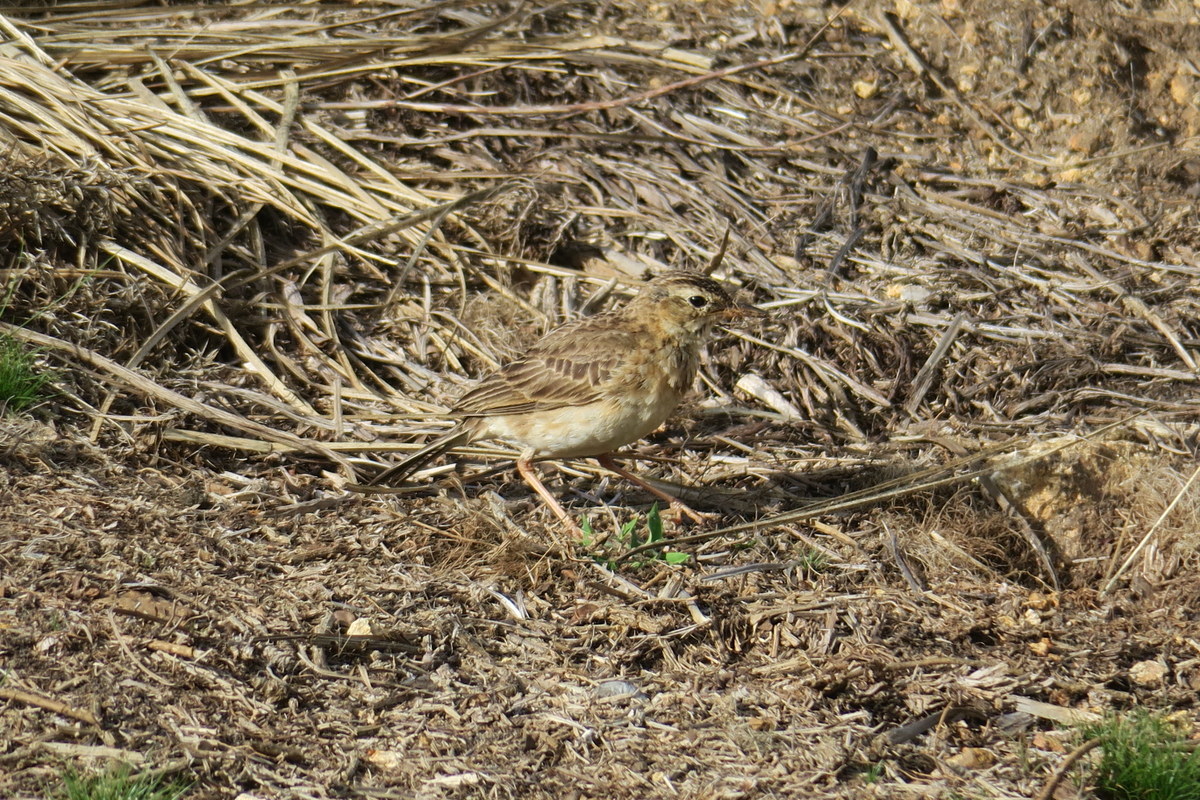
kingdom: Animalia
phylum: Chordata
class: Aves
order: Passeriformes
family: Motacillidae
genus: Anthus
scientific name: Anthus rufulus
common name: Paddyfield pipit
